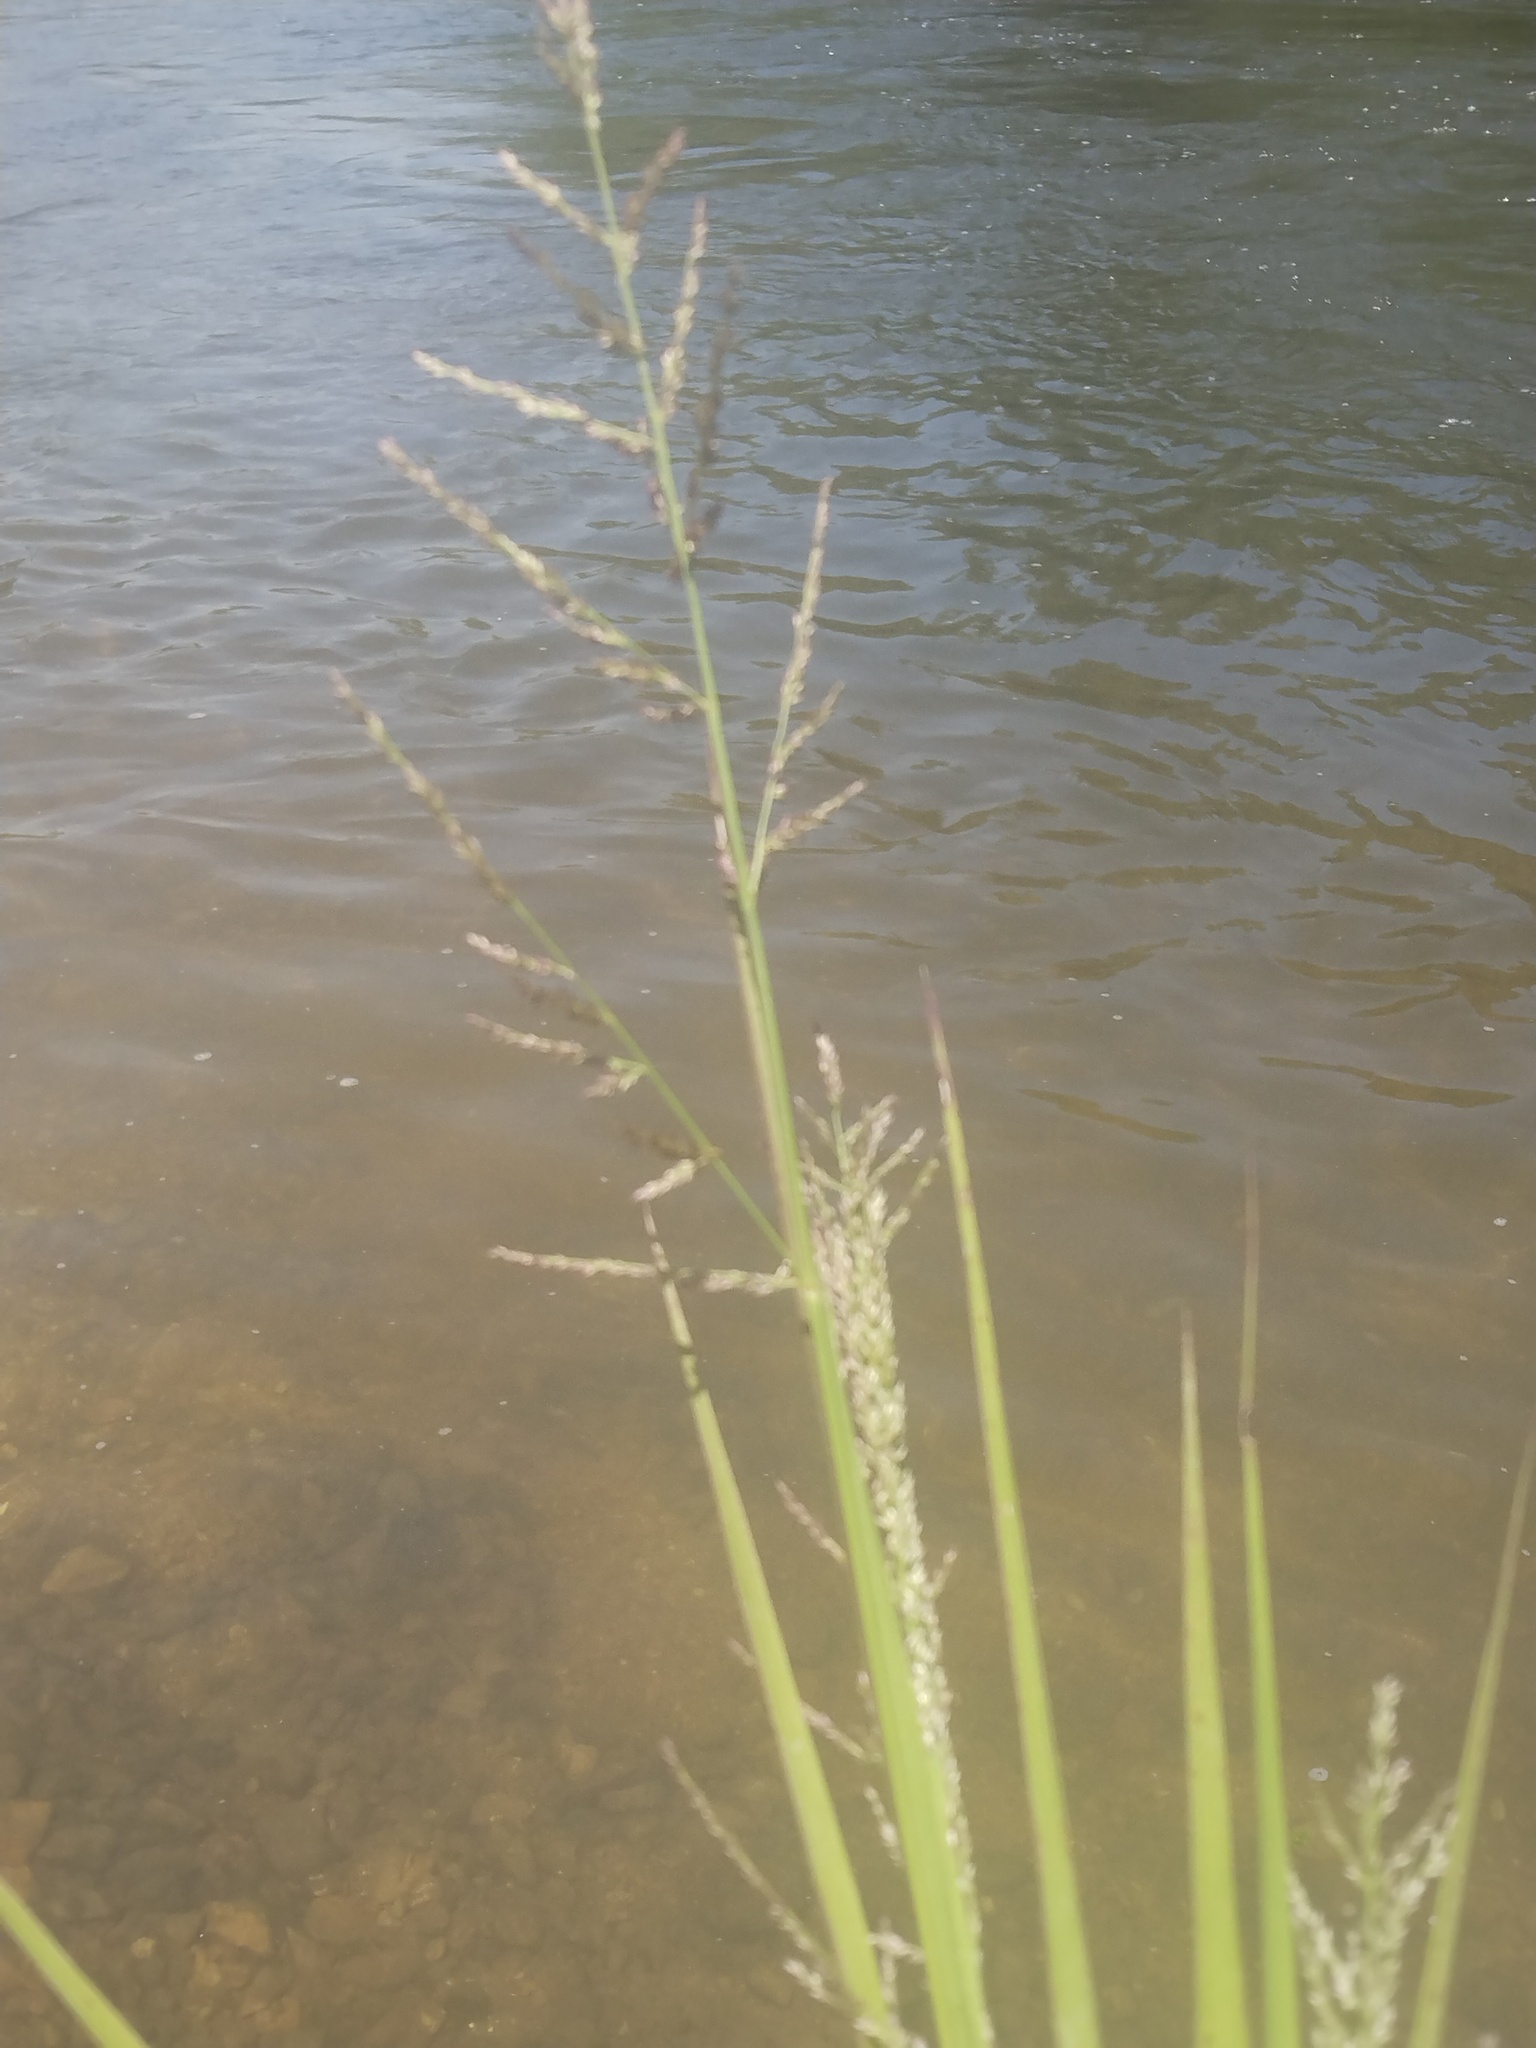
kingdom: Plantae
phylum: Tracheophyta
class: Liliopsida
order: Poales
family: Poaceae
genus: Coleataenia
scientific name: Coleataenia anceps
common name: Beaked panic grass
